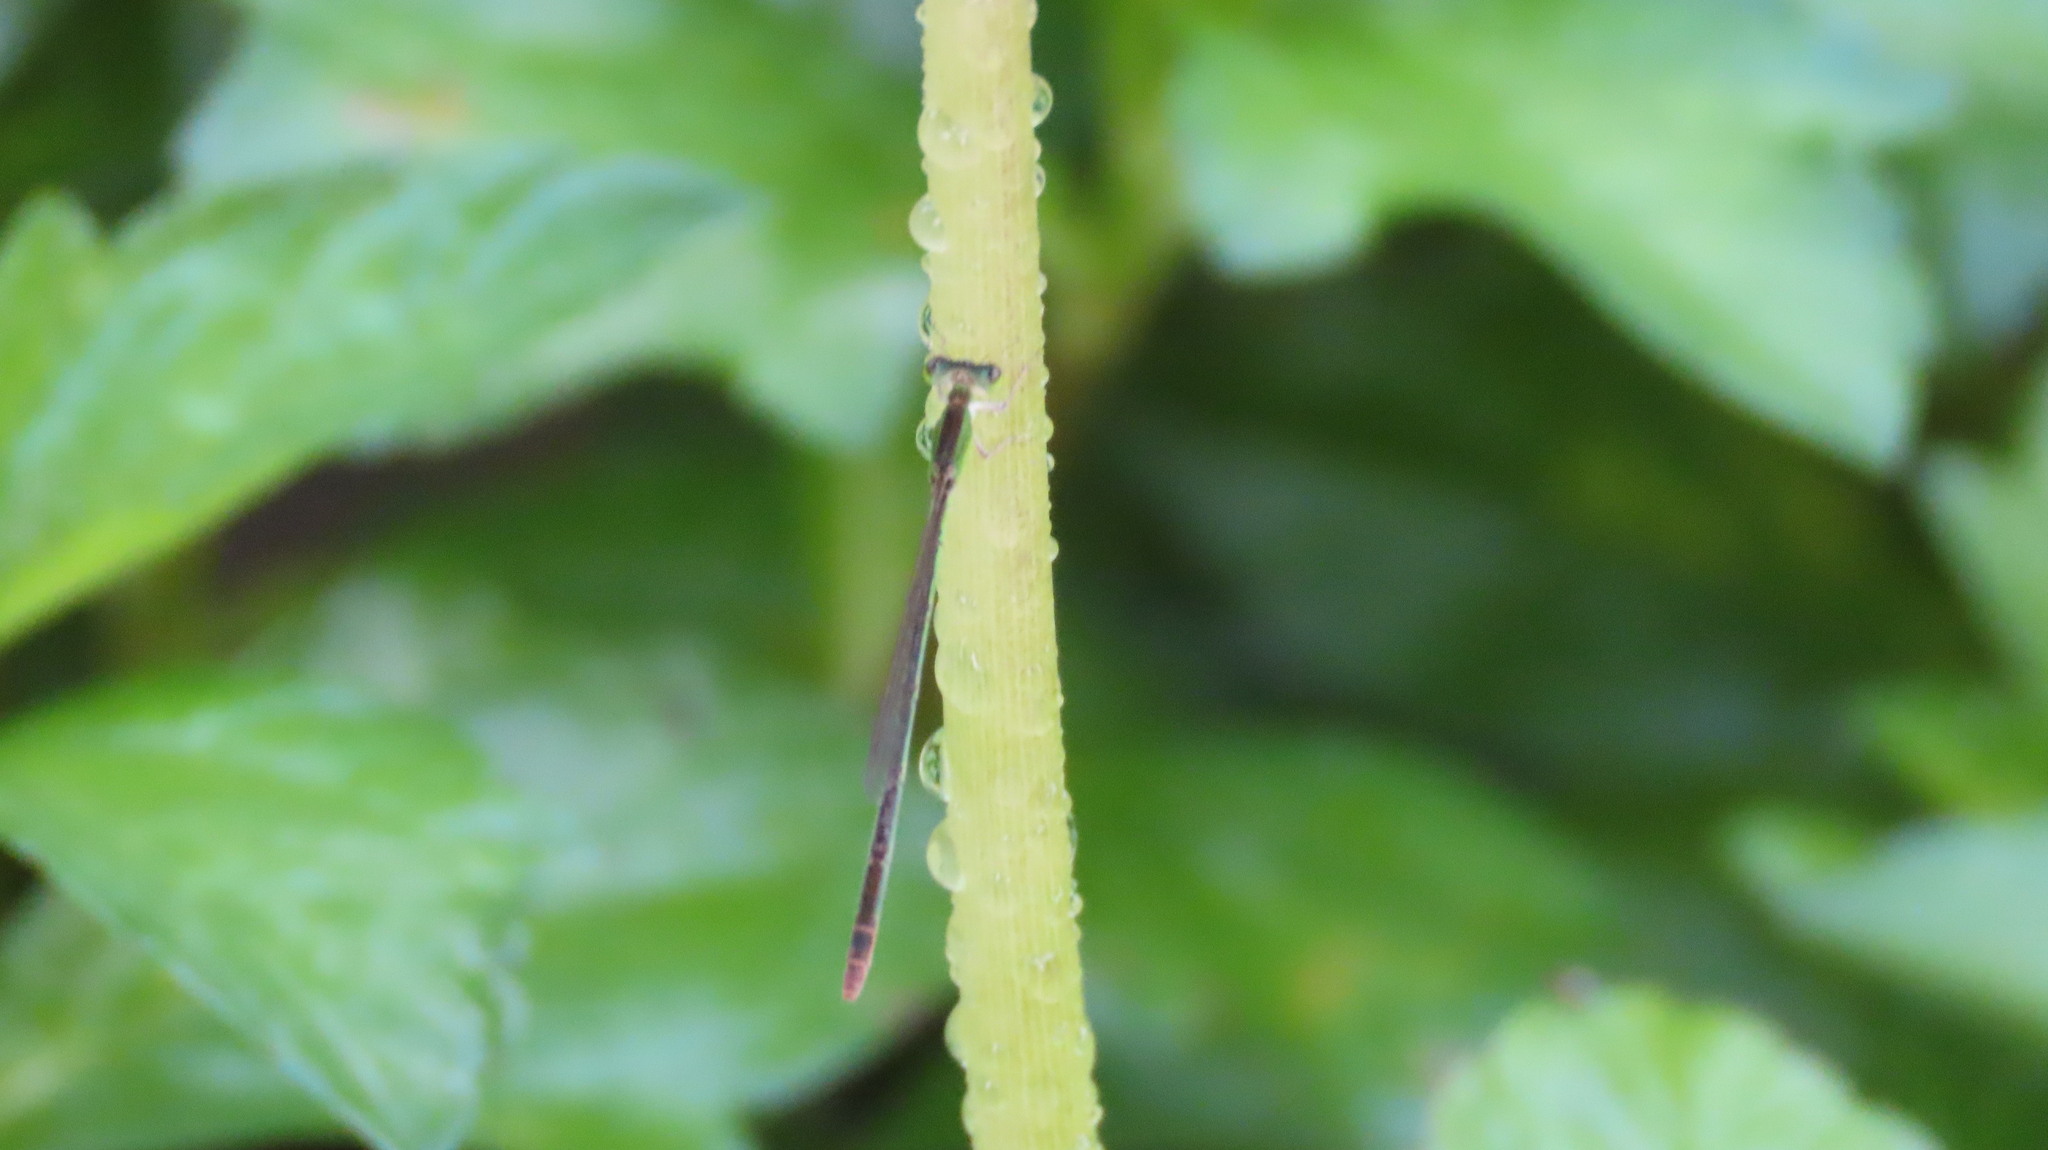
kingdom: Animalia
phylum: Arthropoda
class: Insecta
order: Odonata
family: Coenagrionidae
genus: Agriocnemis
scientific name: Agriocnemis pygmaea
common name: Pygmy wisp
